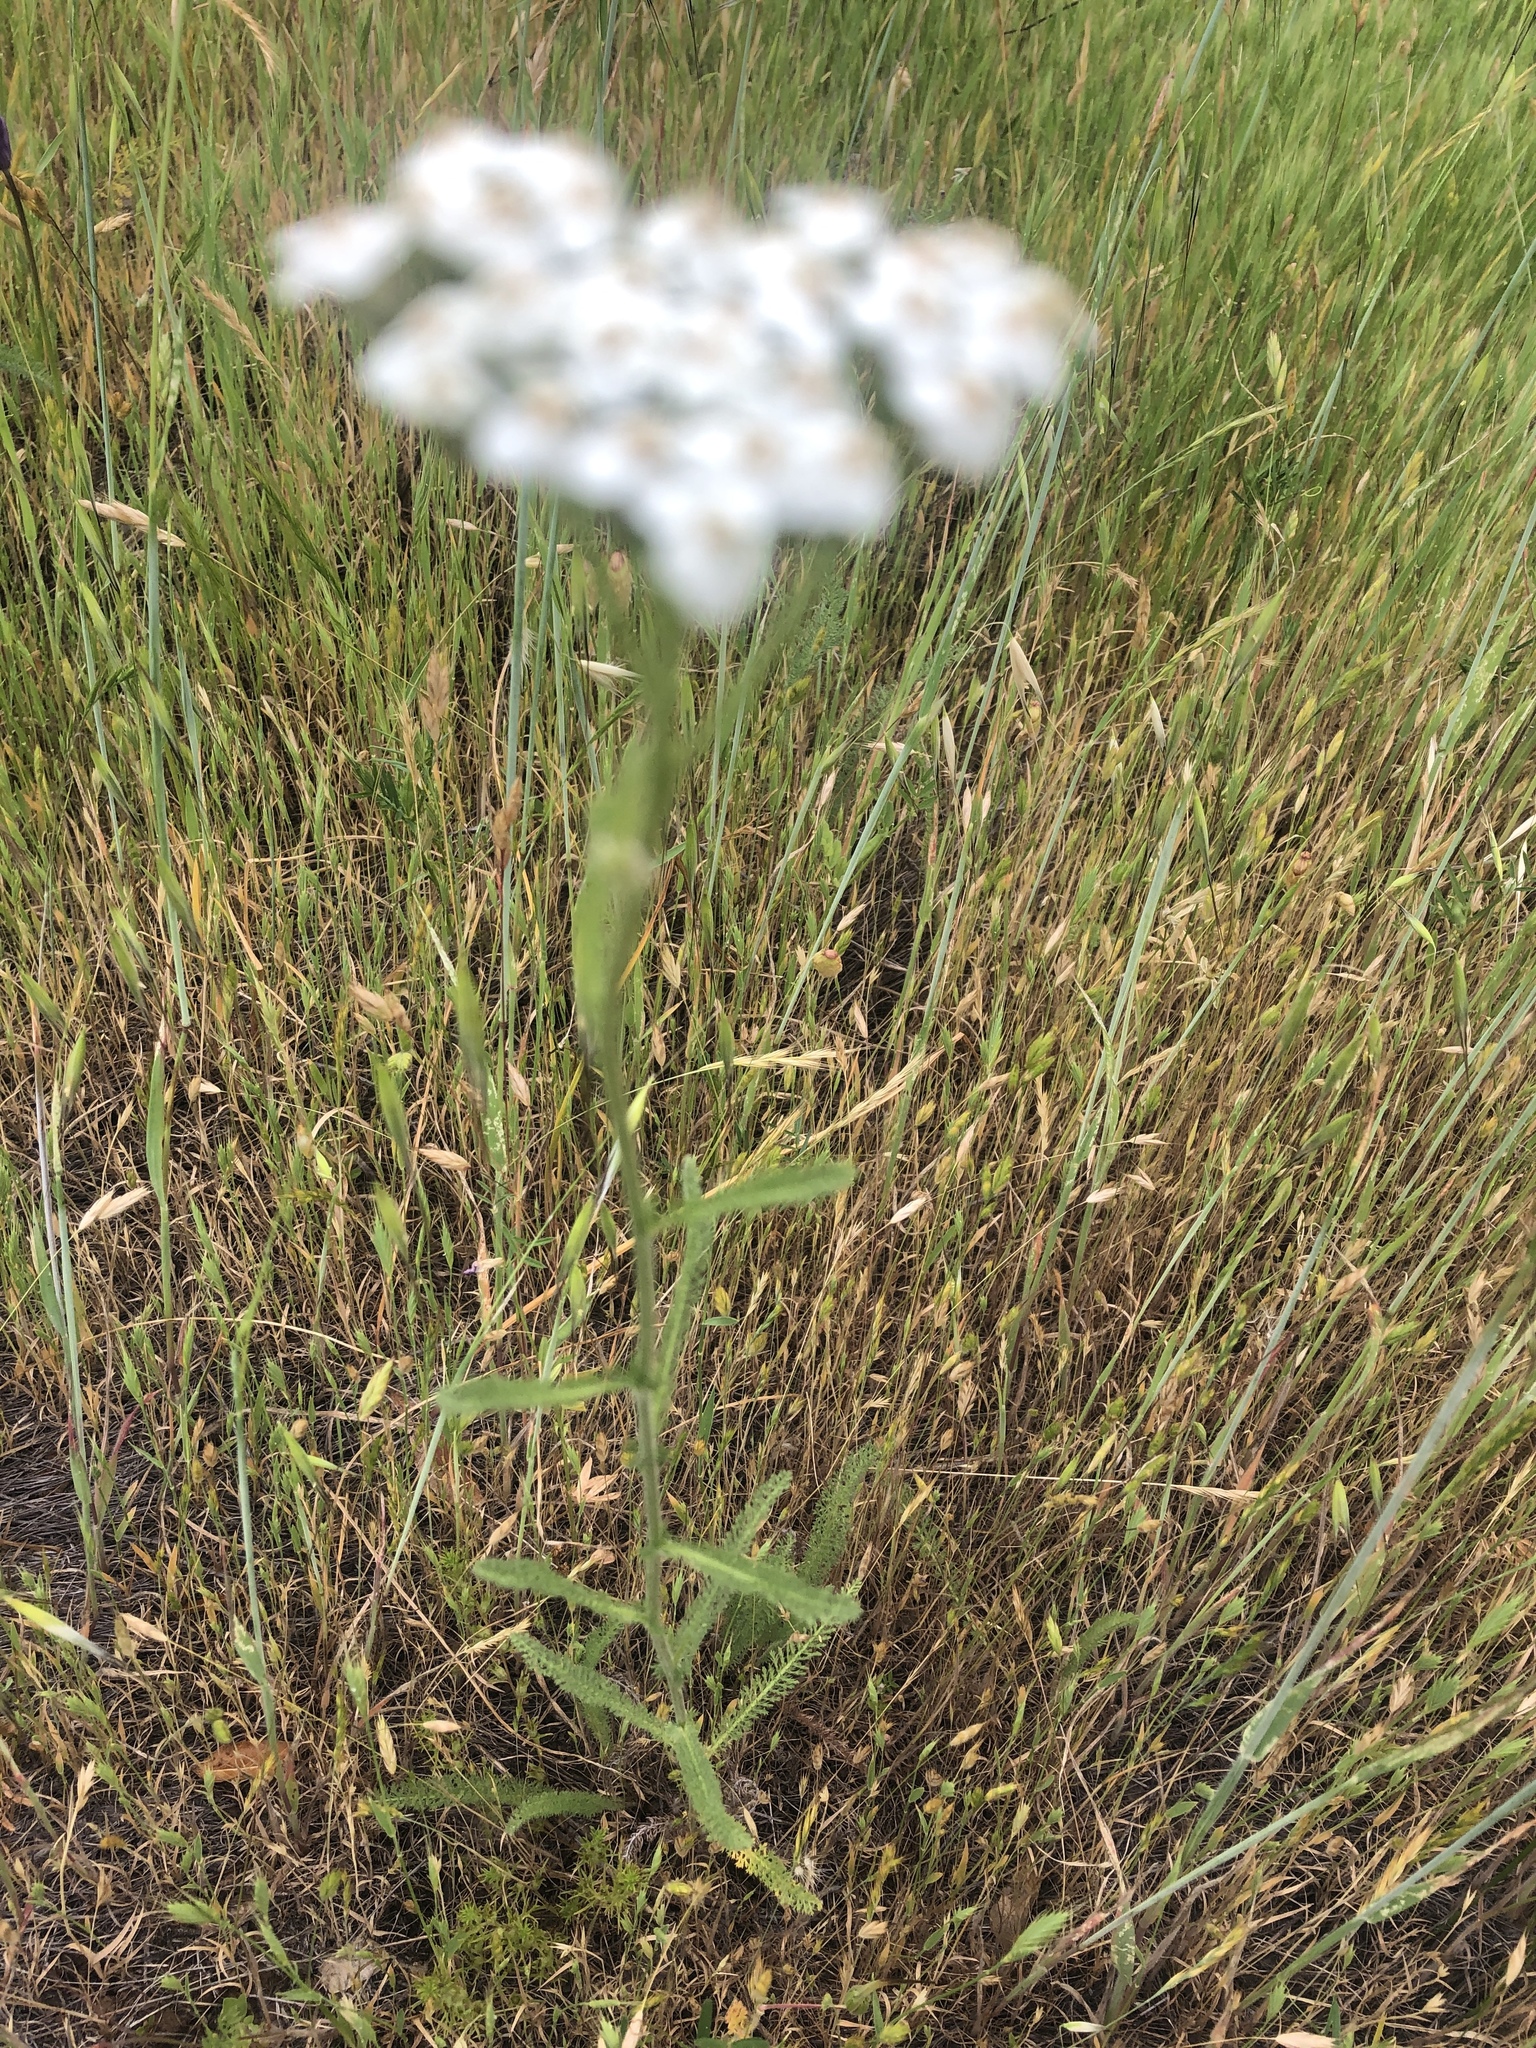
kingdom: Plantae
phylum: Tracheophyta
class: Magnoliopsida
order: Asterales
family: Asteraceae
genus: Achillea
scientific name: Achillea millefolium
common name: Yarrow
